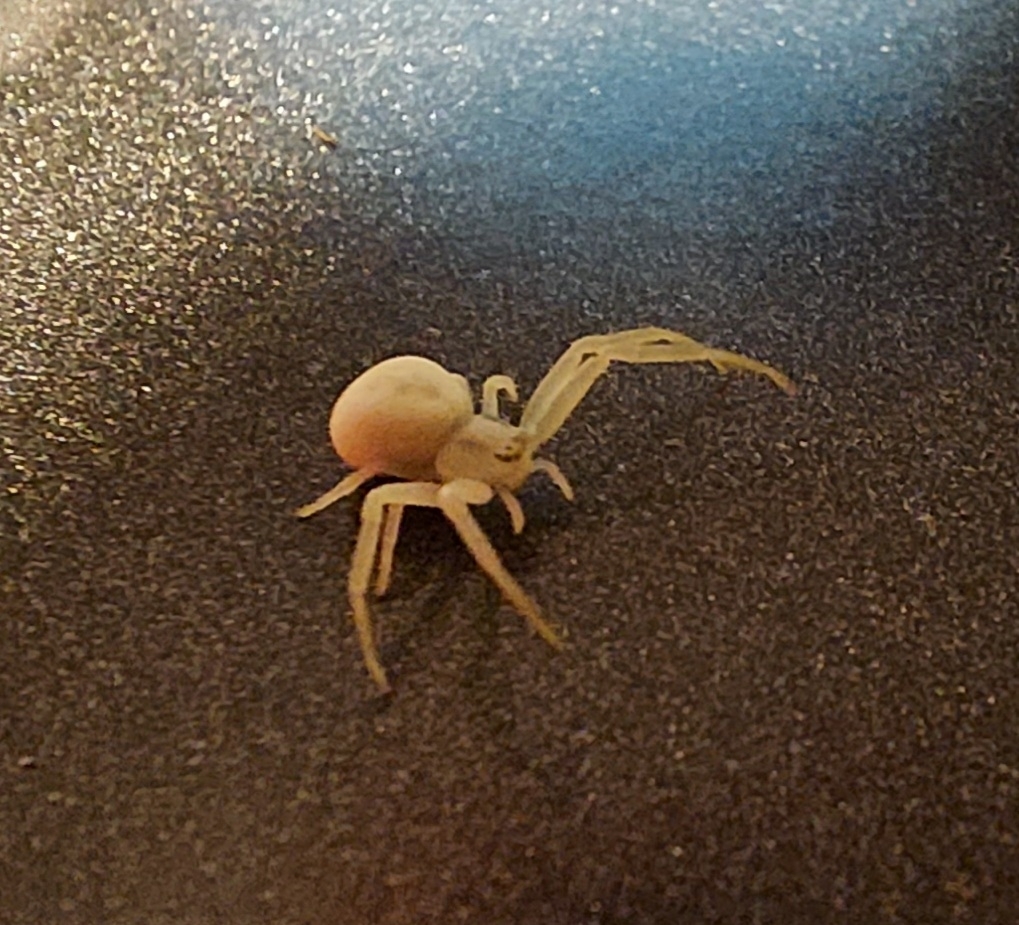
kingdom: Animalia
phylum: Arthropoda
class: Arachnida
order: Araneae
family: Thomisidae
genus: Misumena
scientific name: Misumena vatia
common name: Goldenrod crab spider
